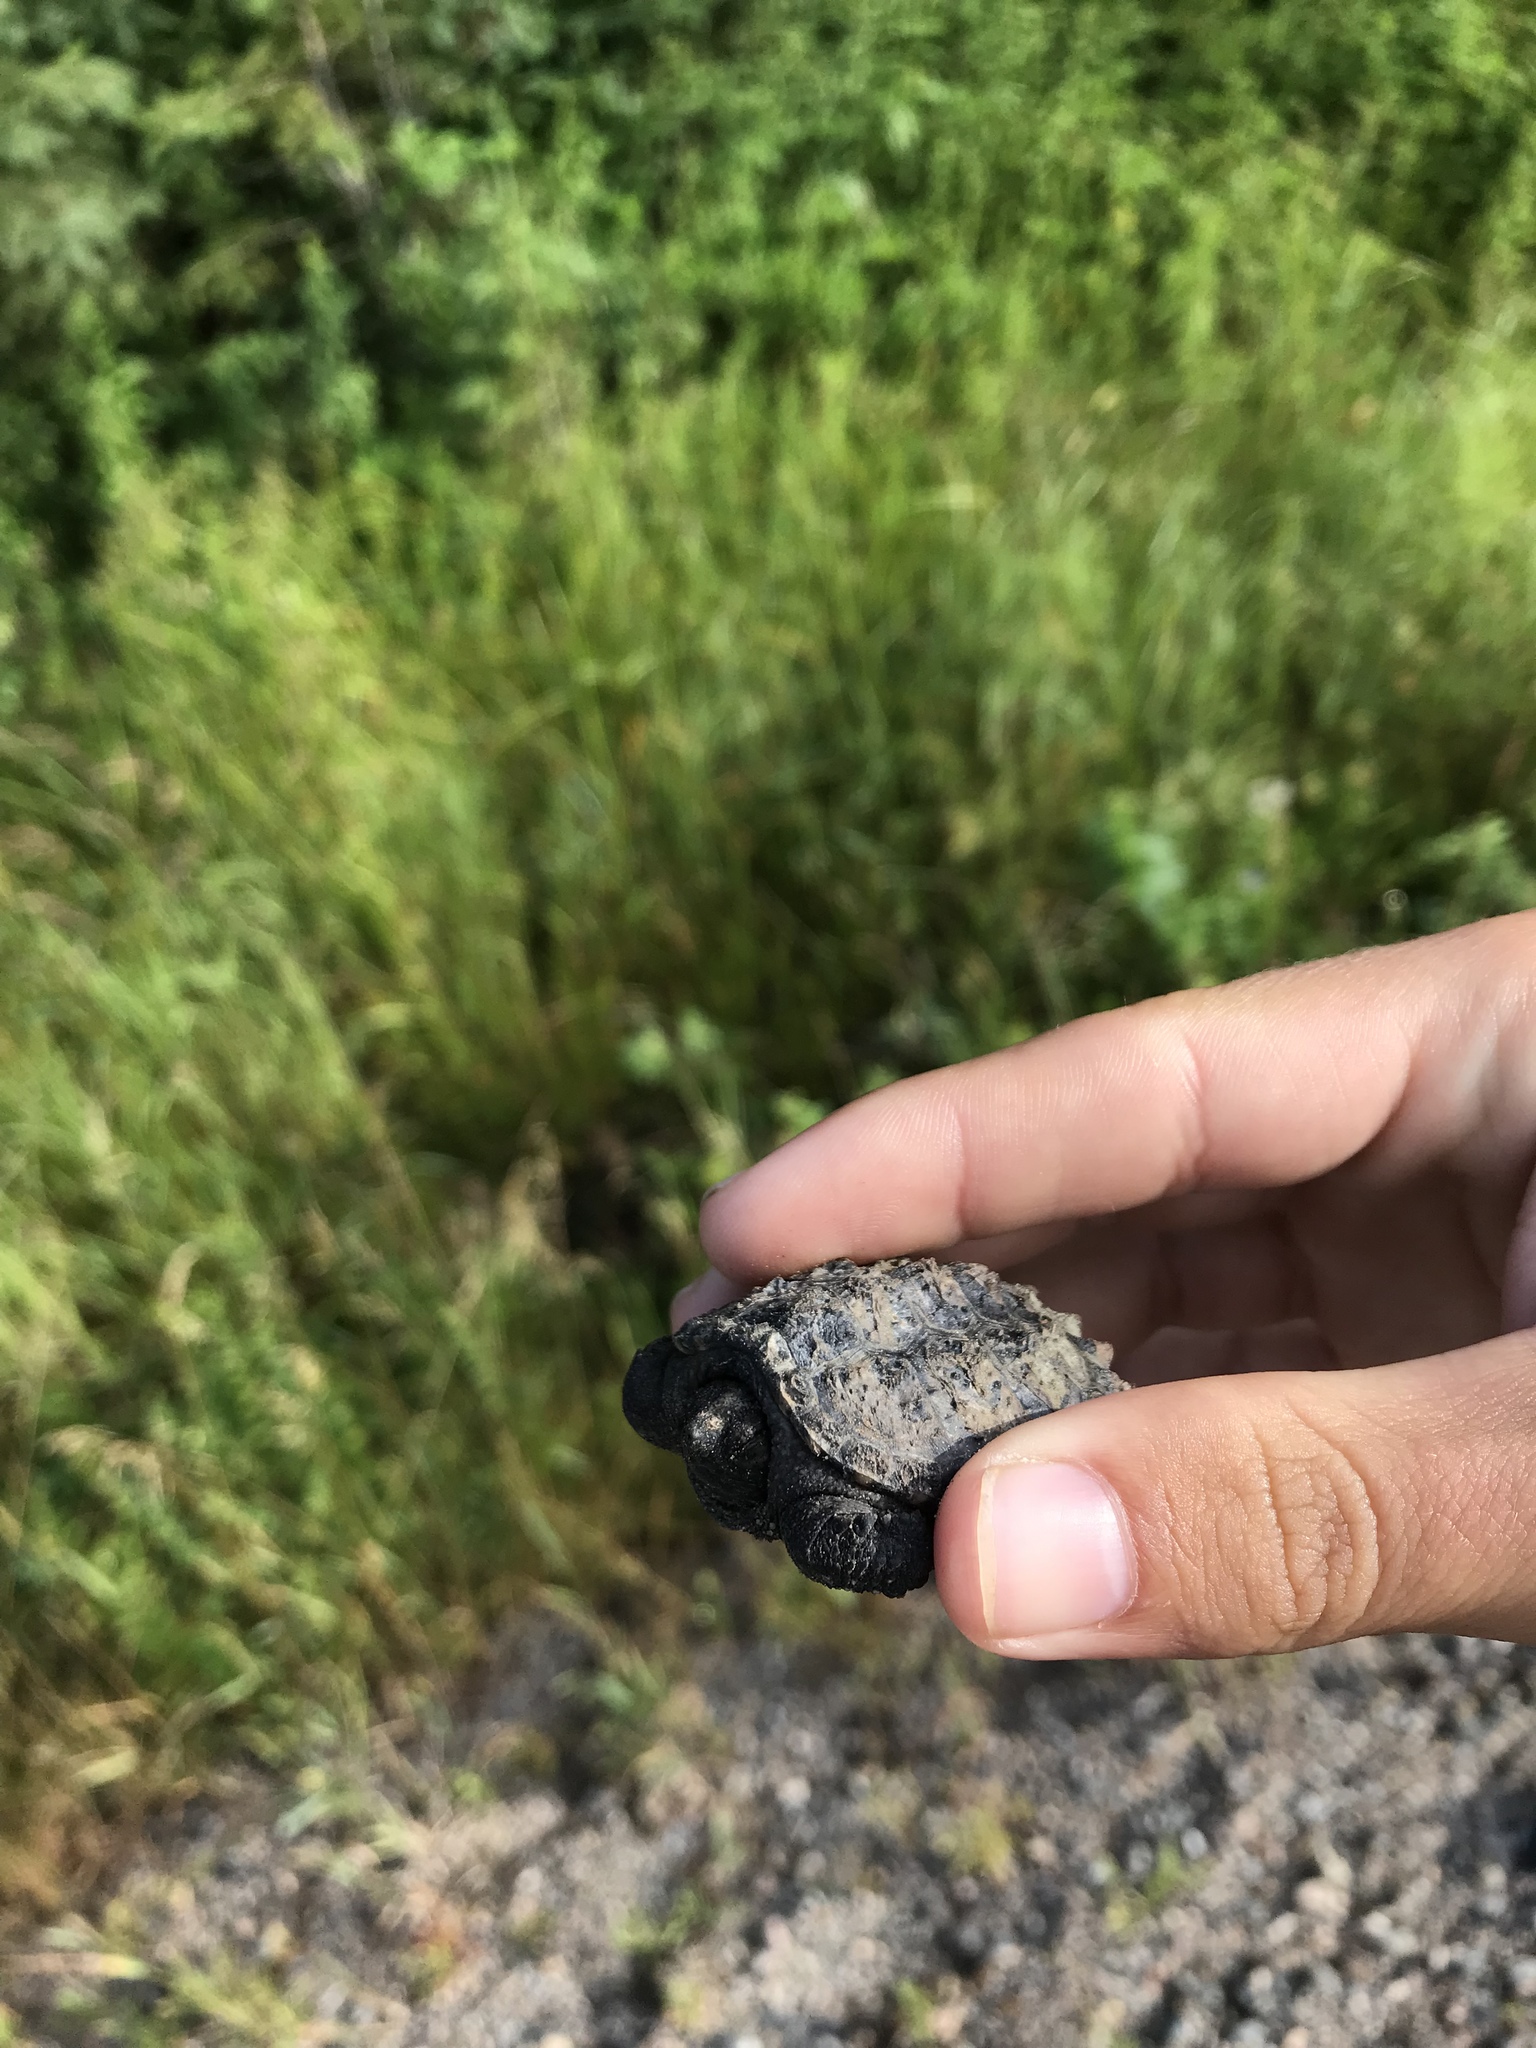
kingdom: Animalia
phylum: Chordata
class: Testudines
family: Chelydridae
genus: Chelydra
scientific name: Chelydra serpentina
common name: Common snapping turtle
